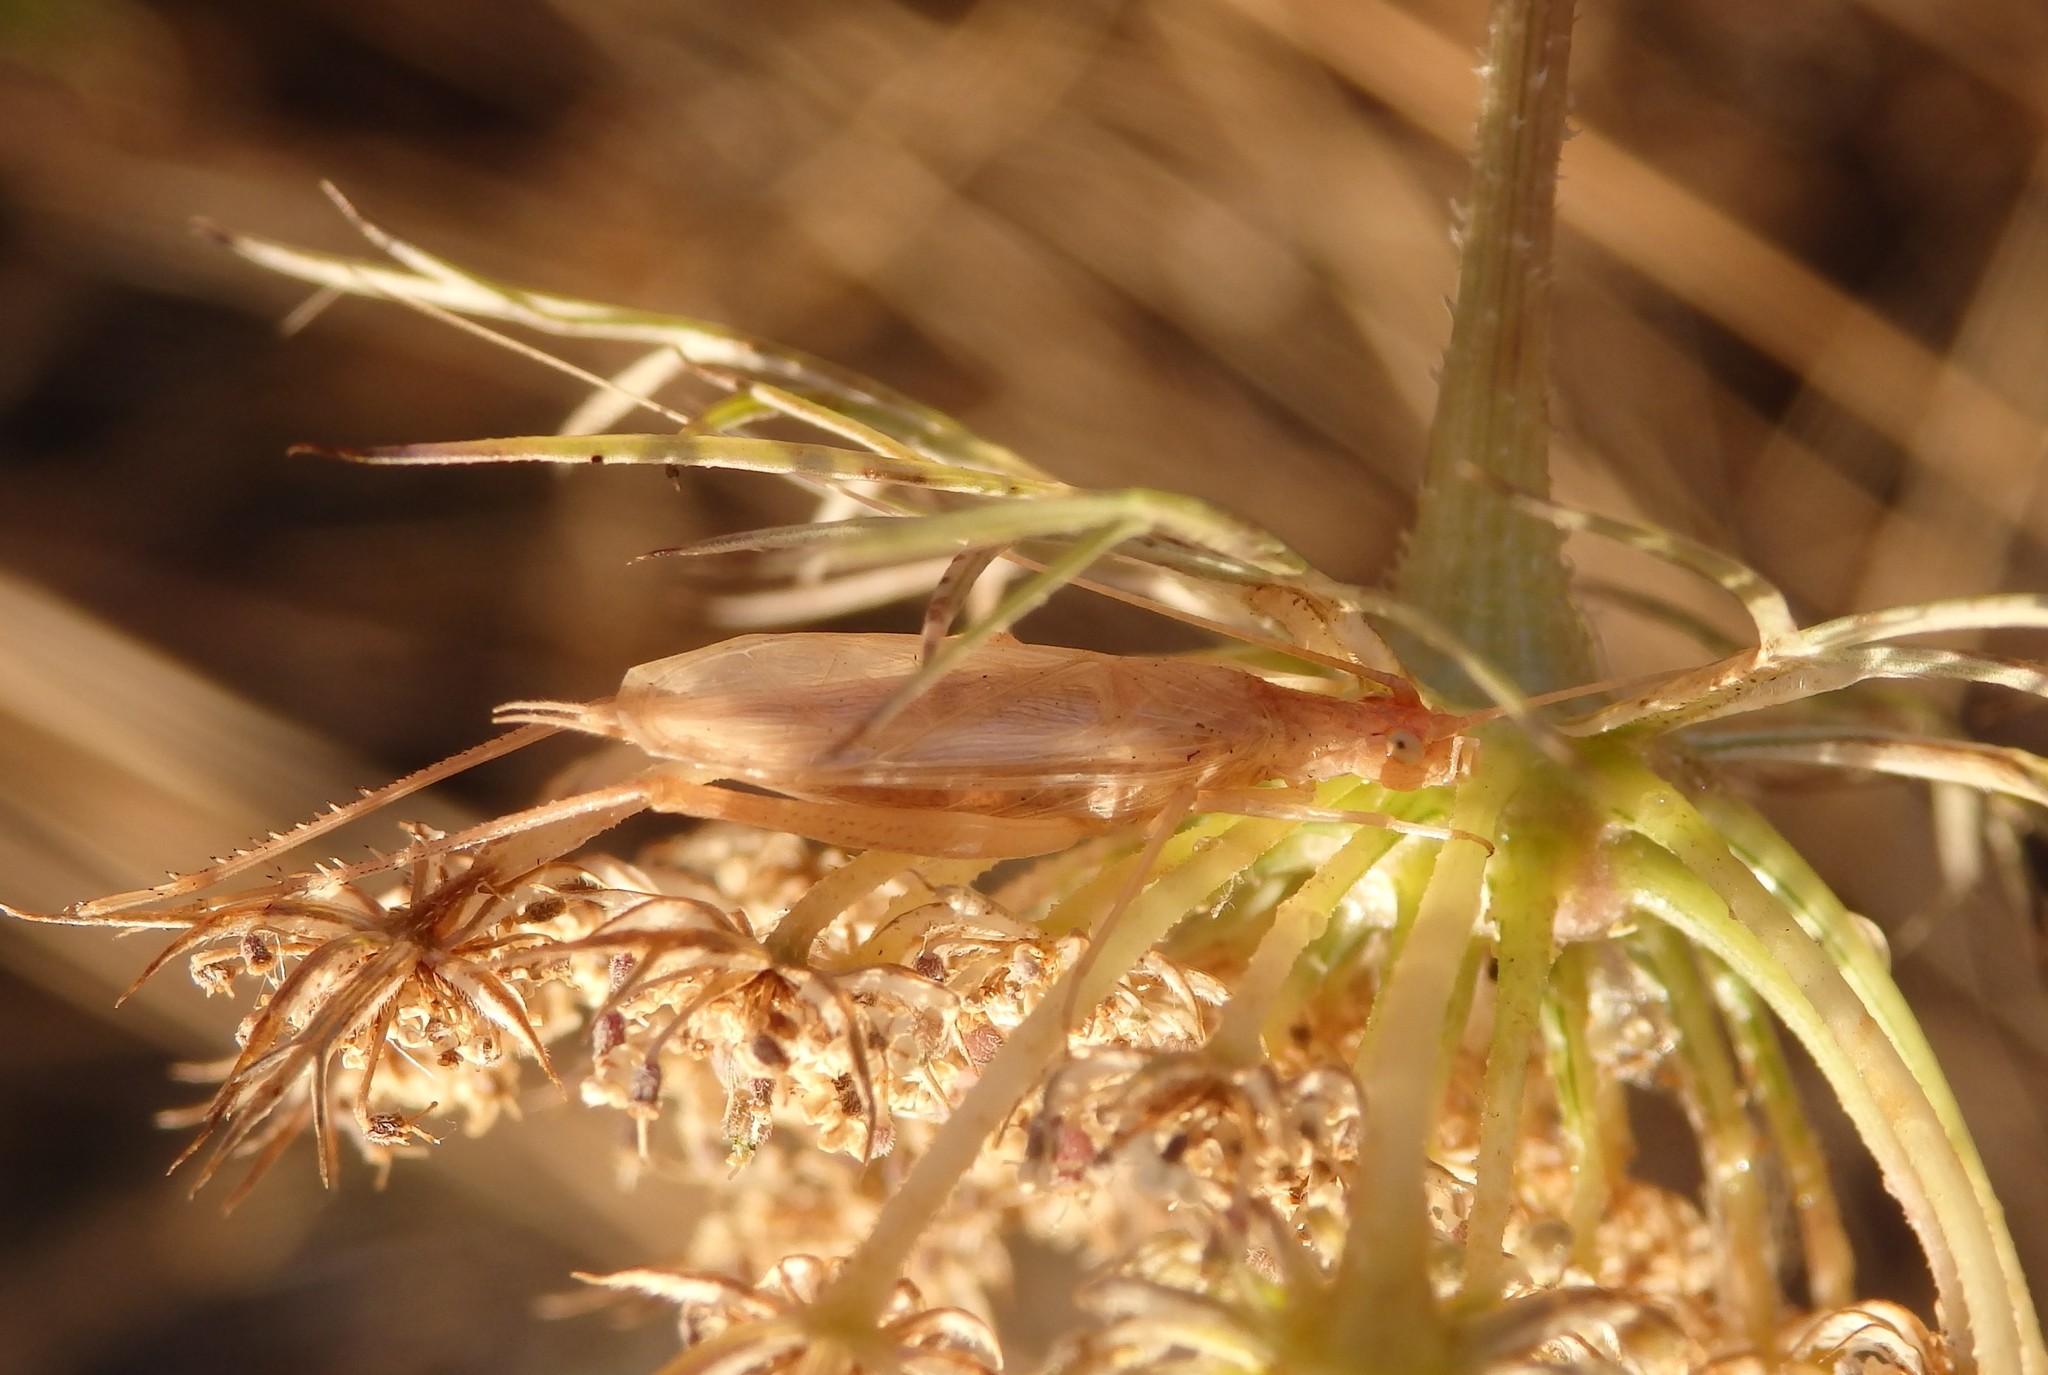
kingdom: Animalia
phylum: Arthropoda
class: Insecta
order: Orthoptera
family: Gryllidae
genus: Oecanthus
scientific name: Oecanthus pellucens
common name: Tree-cricket
